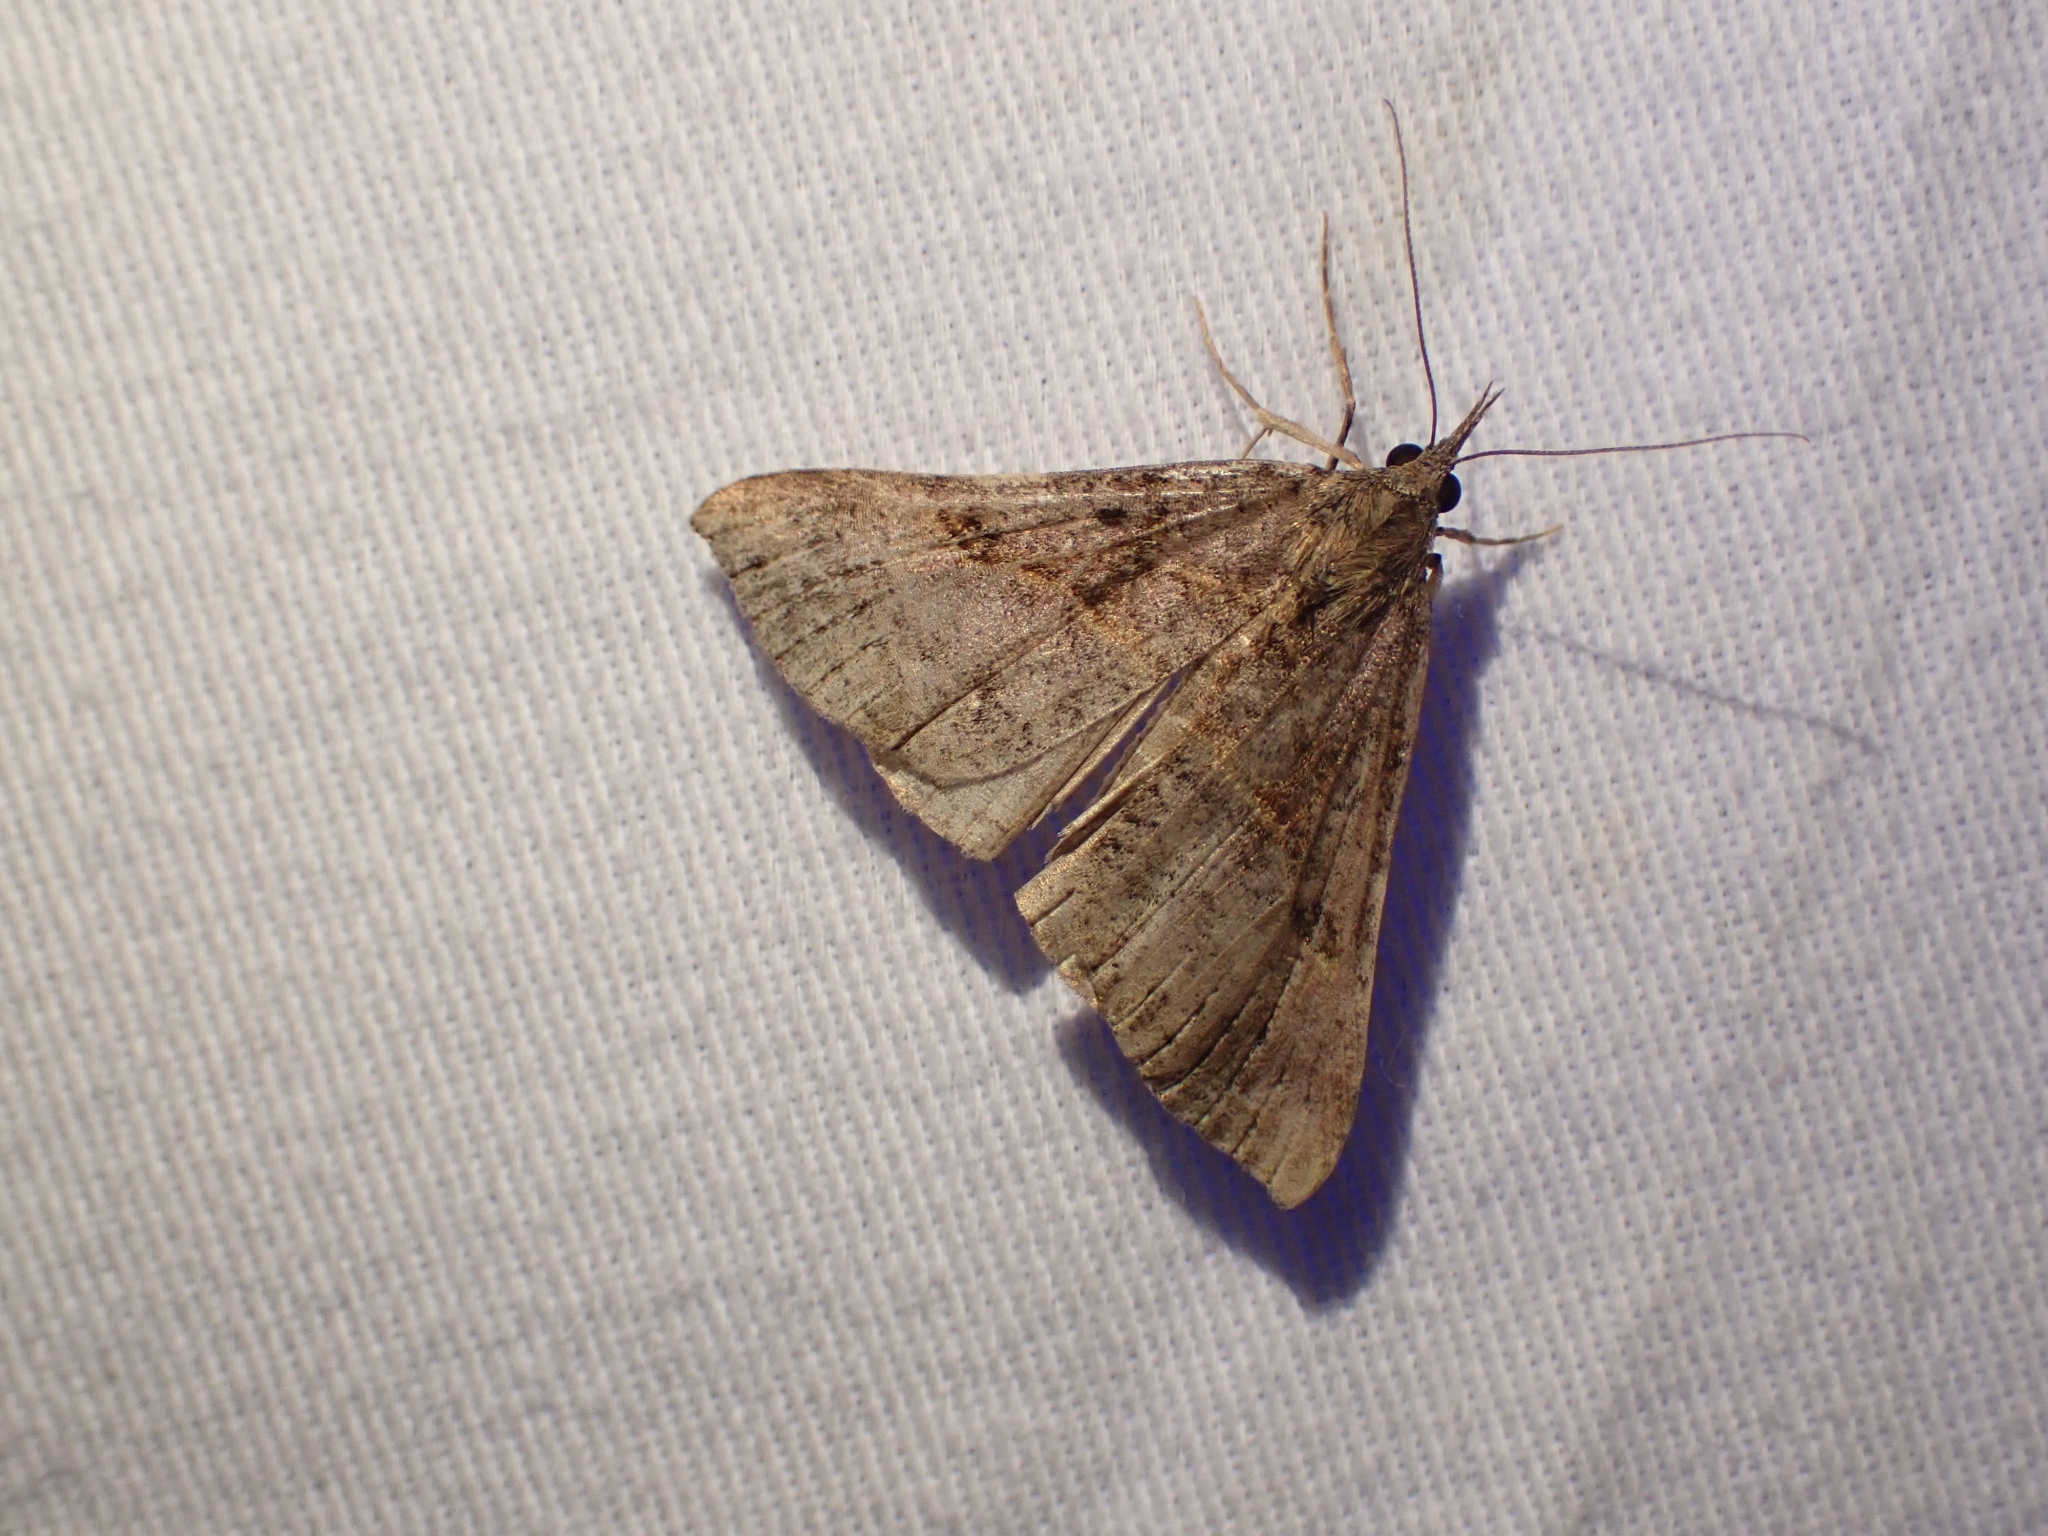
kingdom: Animalia
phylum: Arthropoda
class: Insecta
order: Lepidoptera
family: Erebidae
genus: Hypena
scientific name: Hypena edictalis
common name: Large snout
